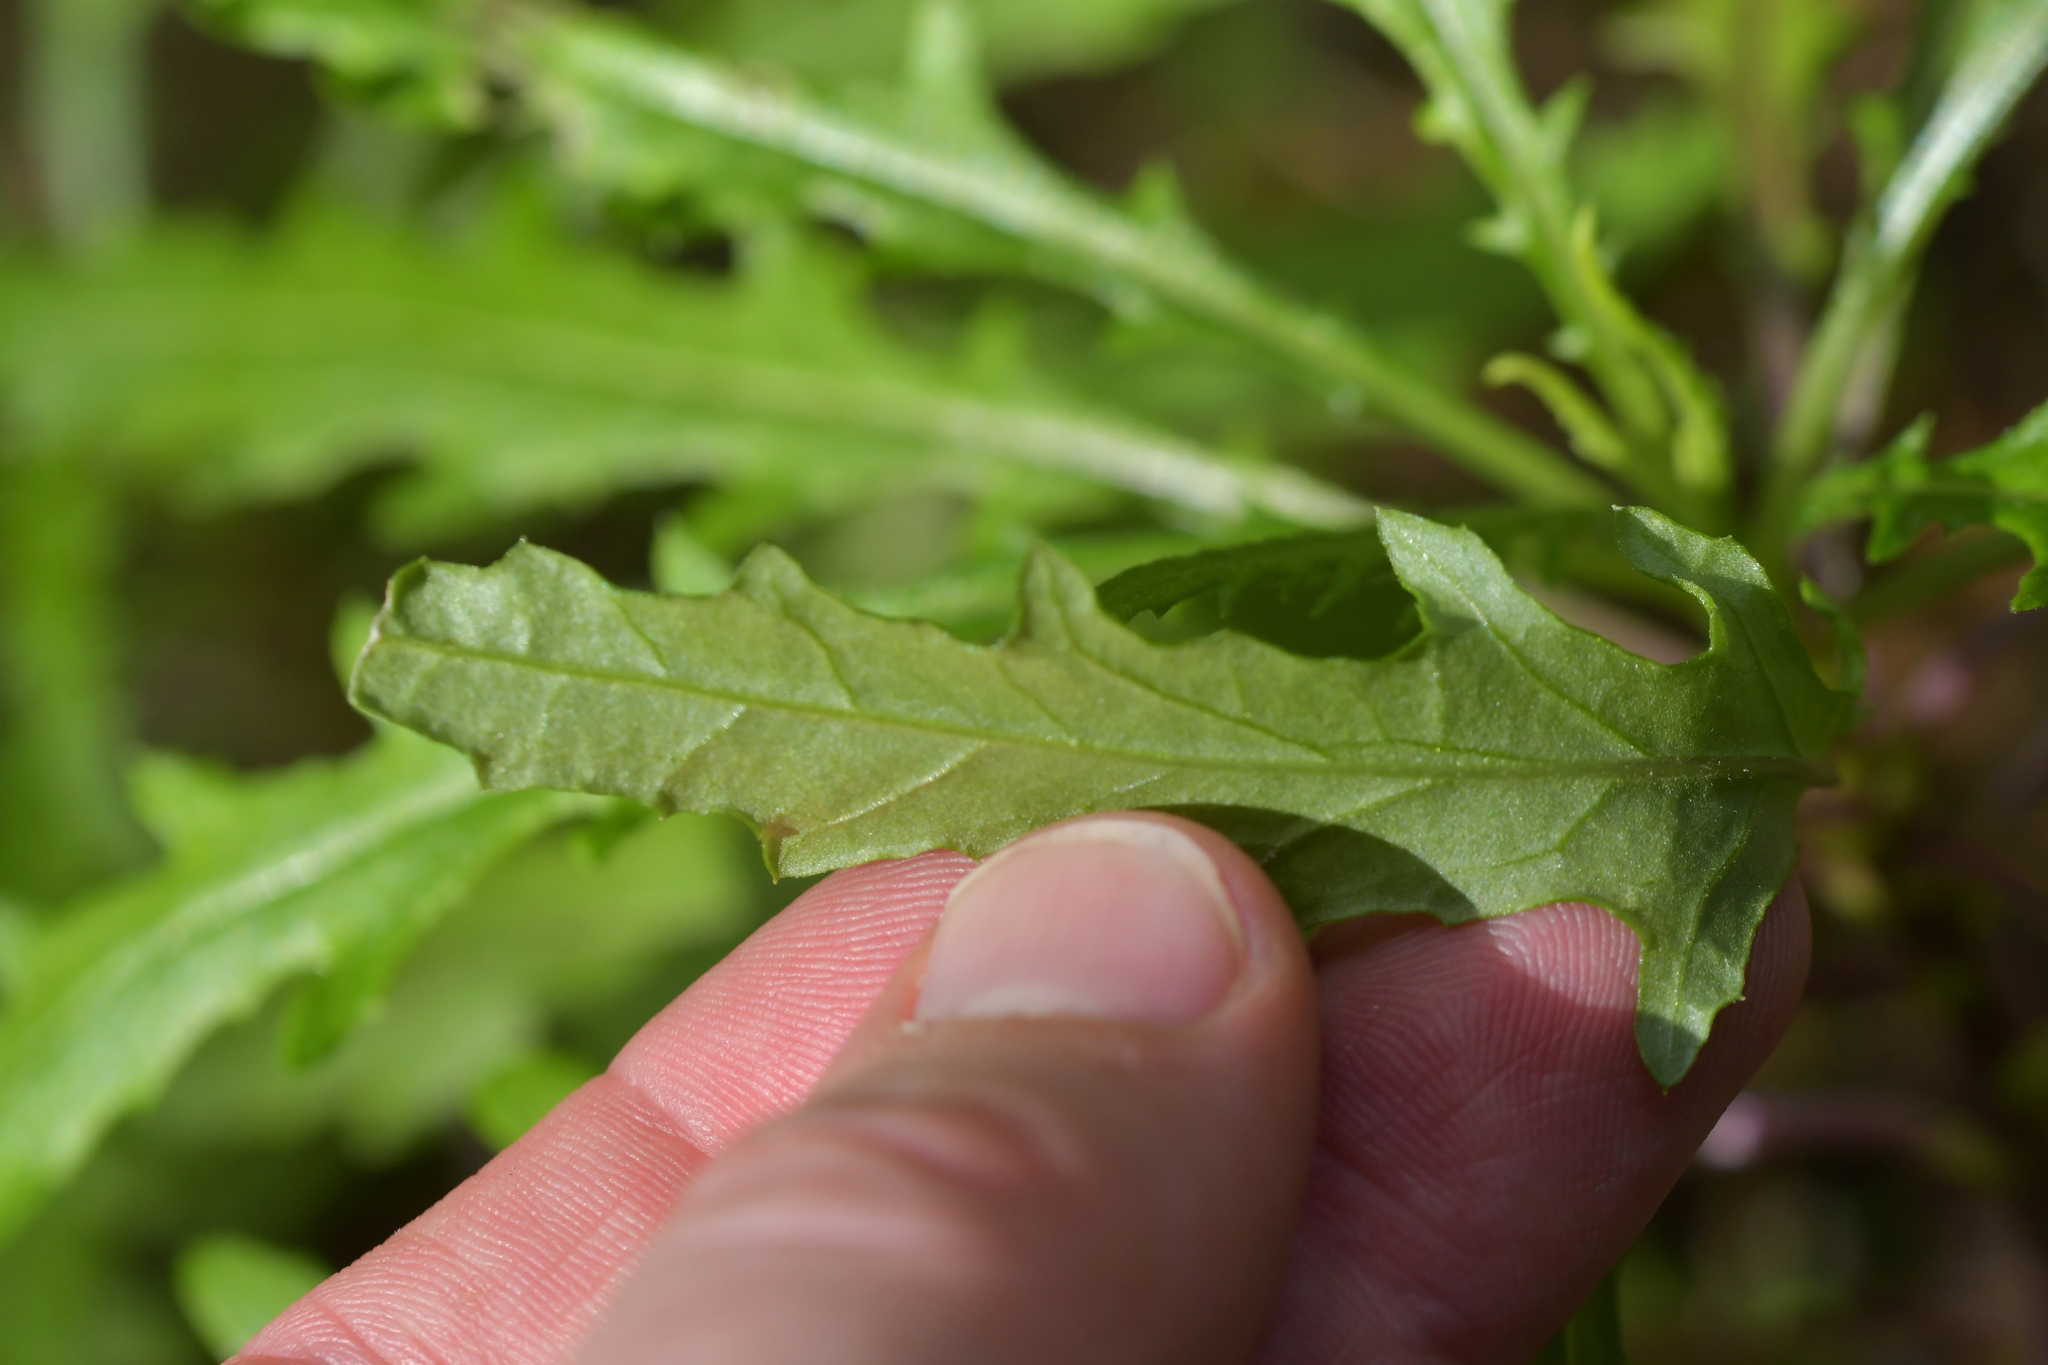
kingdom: Plantae
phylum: Tracheophyta
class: Magnoliopsida
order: Asterales
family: Asteraceae
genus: Senecio
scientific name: Senecio diaschides
